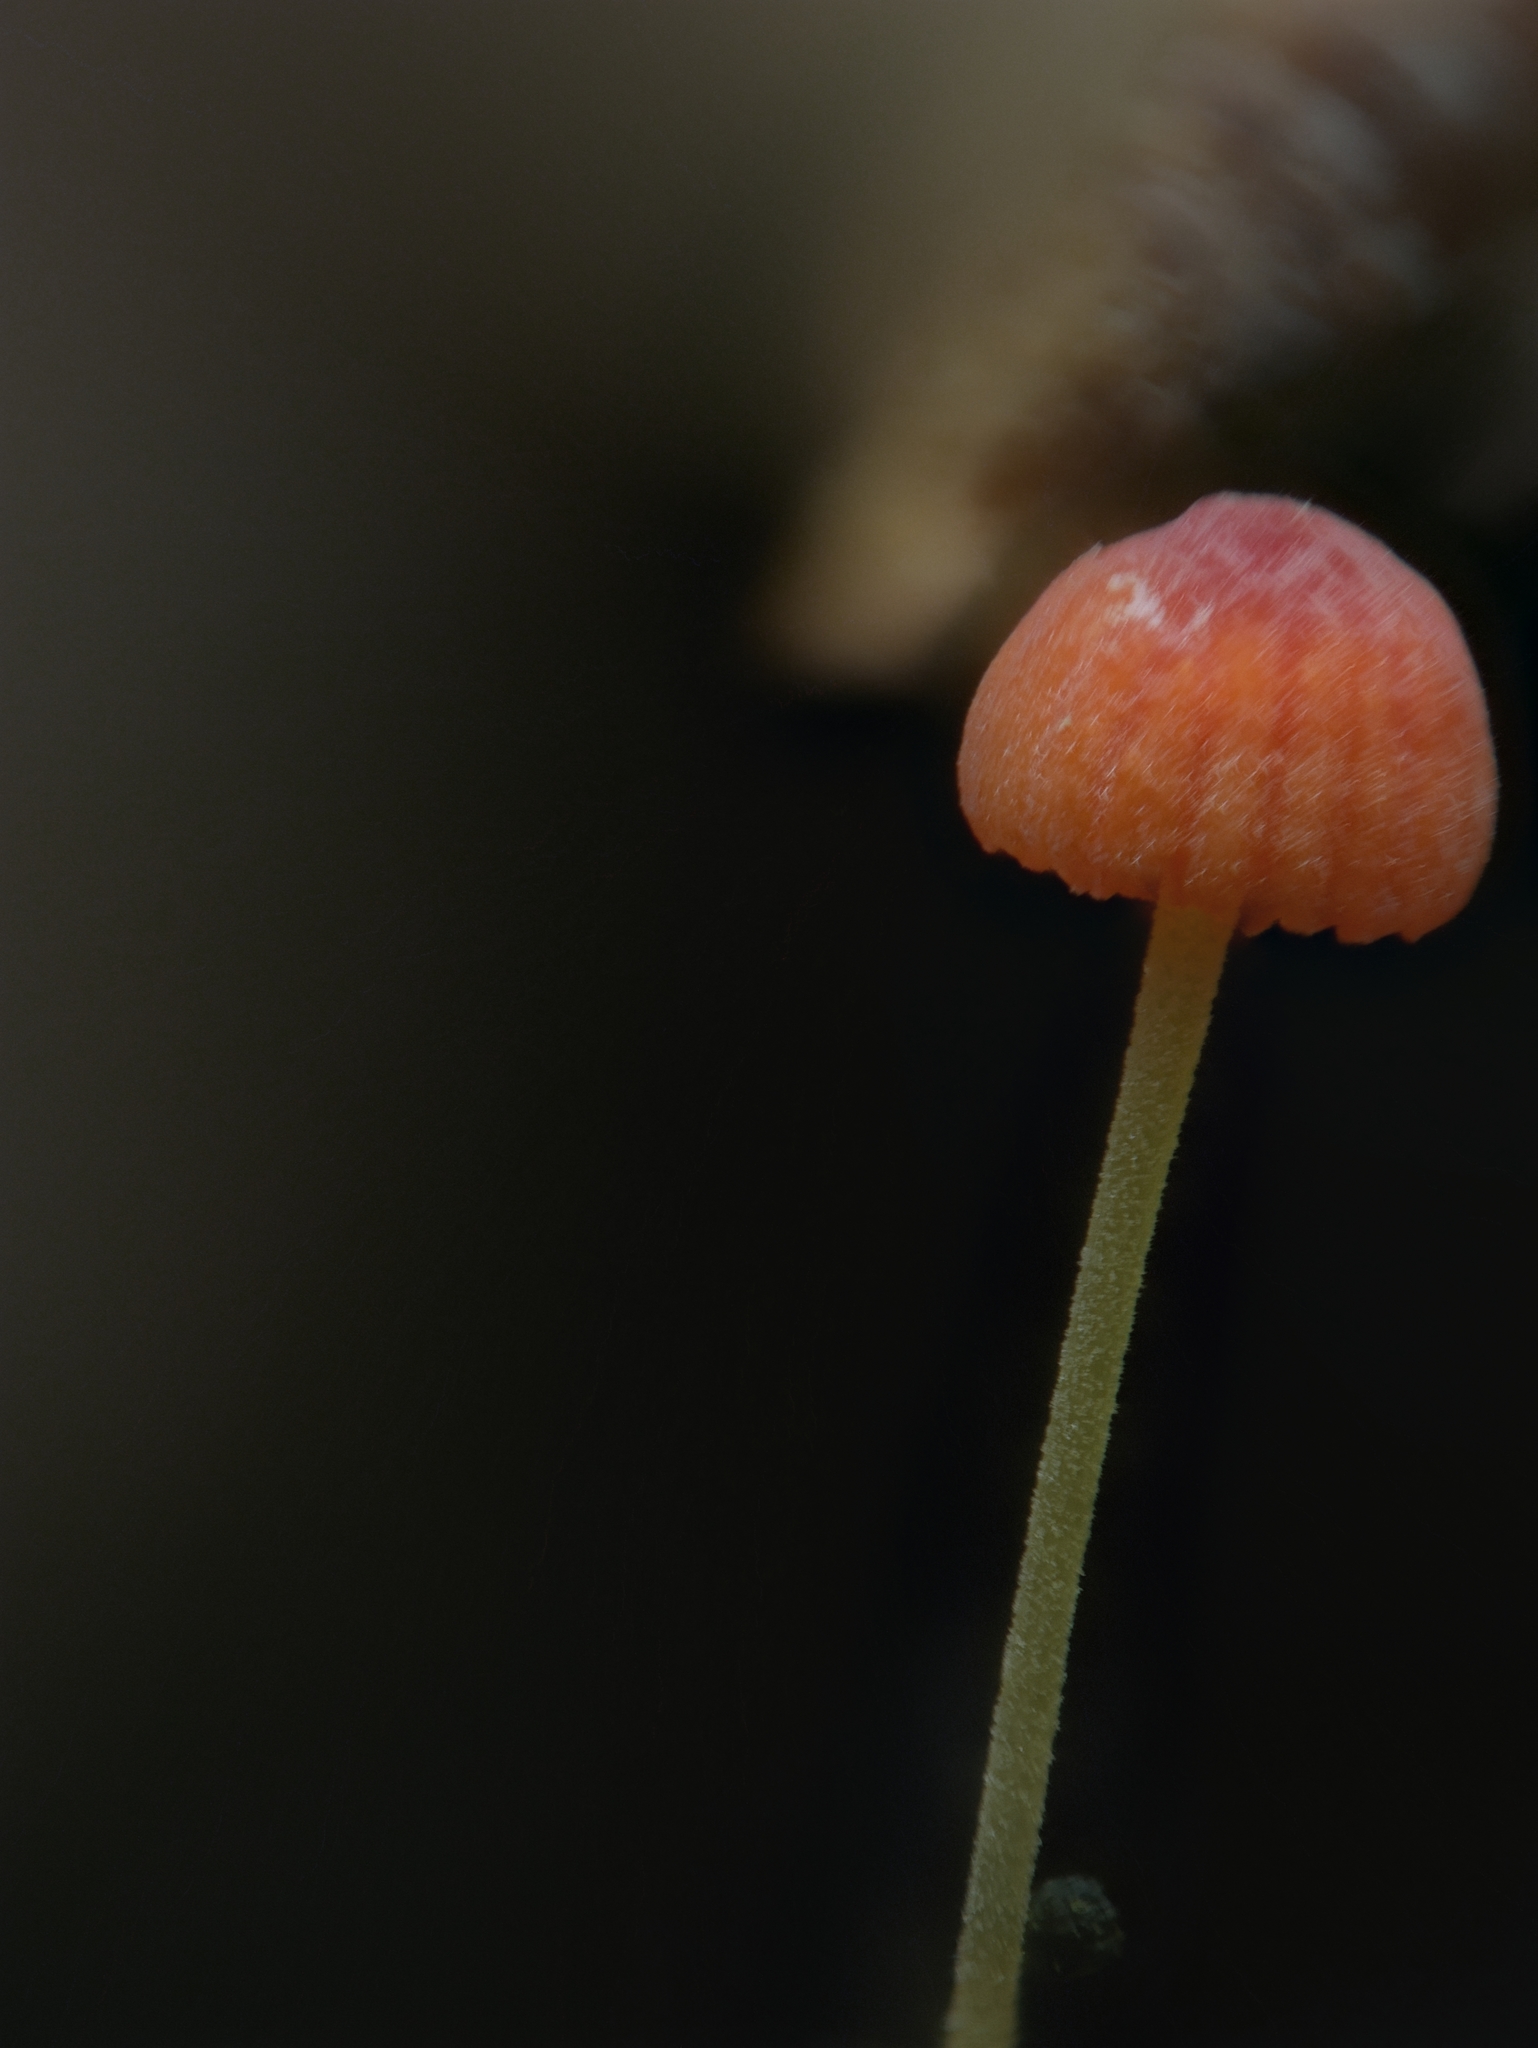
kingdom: Fungi
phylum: Basidiomycota
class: Agaricomycetes
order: Agaricales
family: Mycenaceae
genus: Mycena
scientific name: Mycena acicula
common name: Orange bonnet
